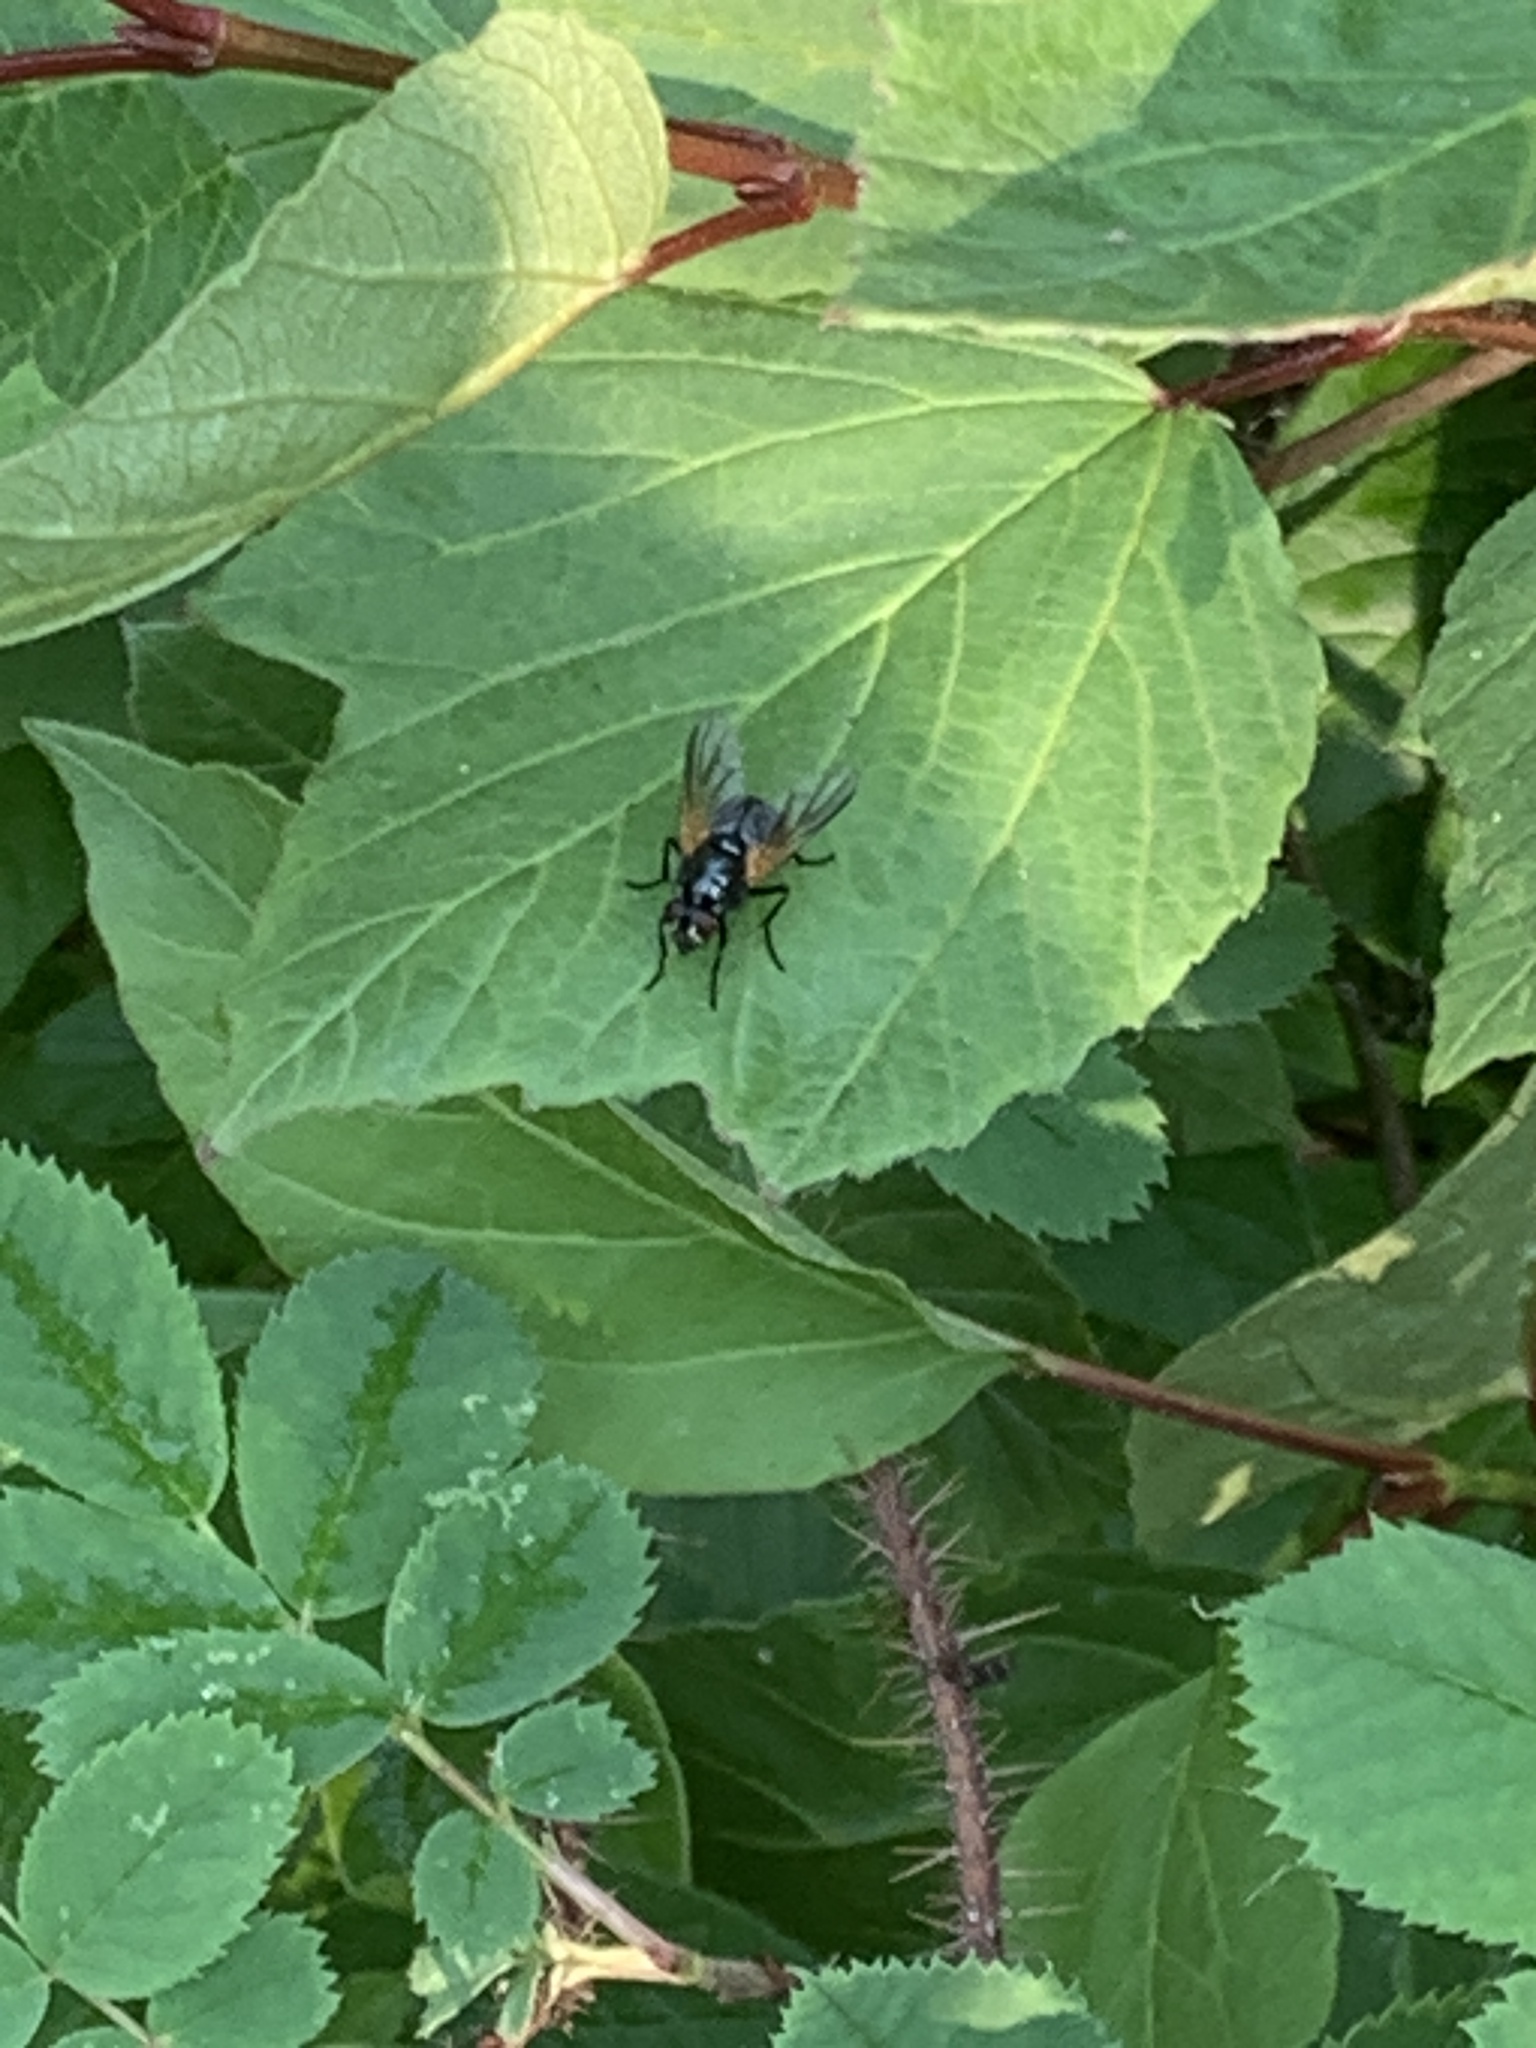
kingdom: Animalia
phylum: Arthropoda
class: Insecta
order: Diptera
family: Muscidae
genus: Mesembrina
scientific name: Mesembrina latreillii
